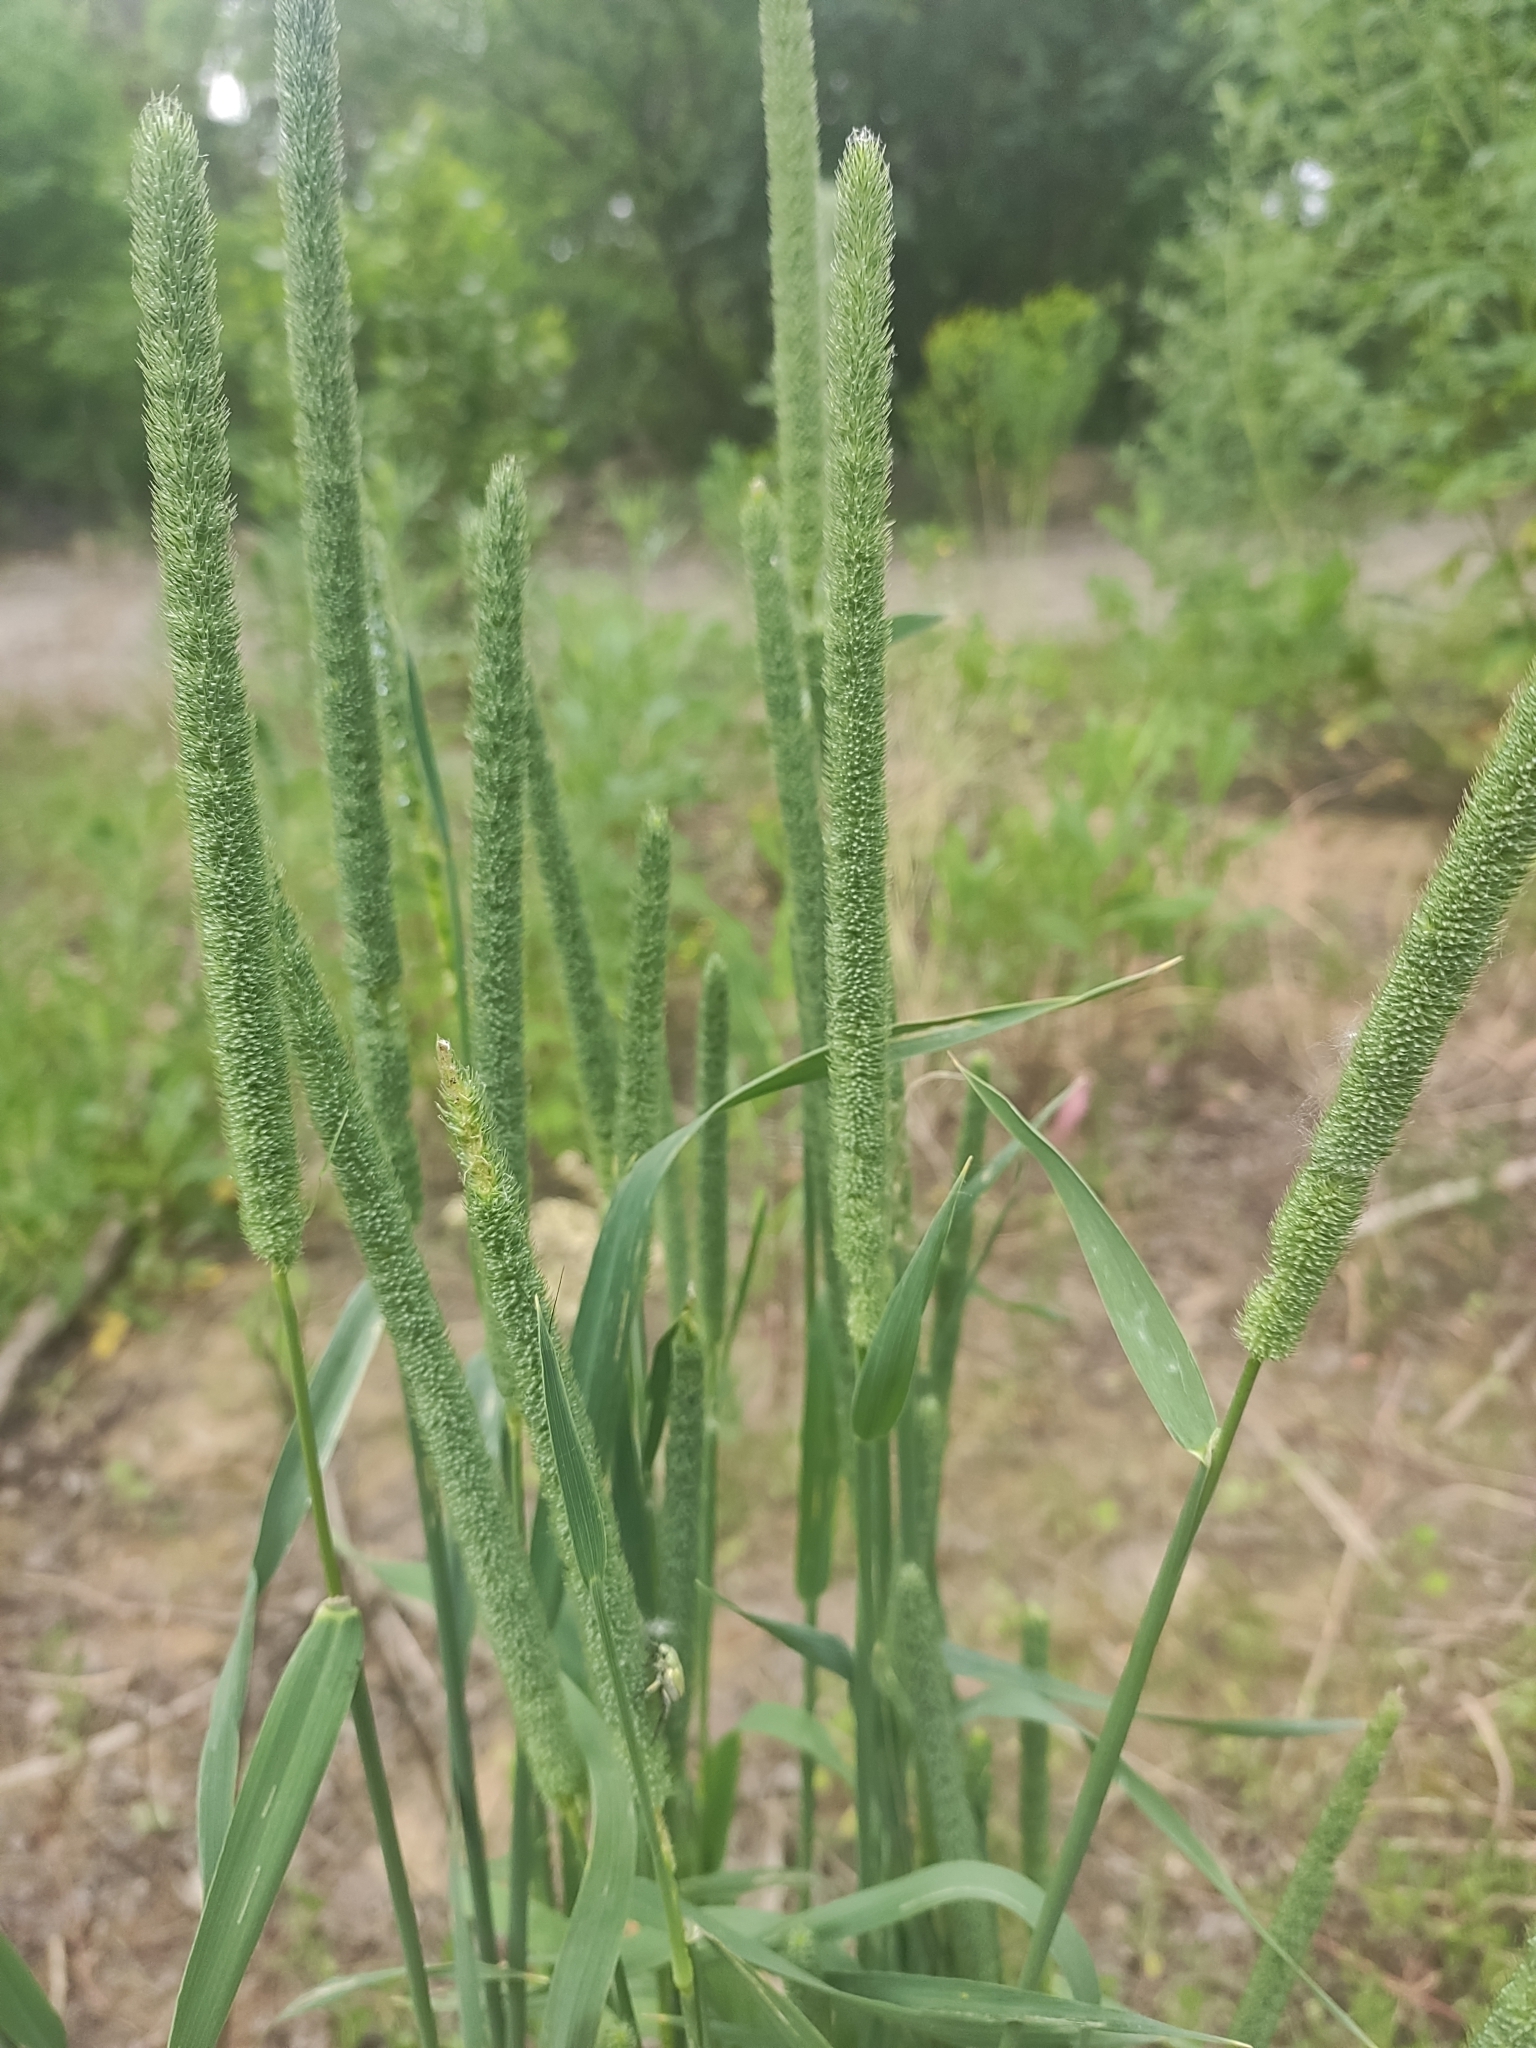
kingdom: Plantae
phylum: Tracheophyta
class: Liliopsida
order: Poales
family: Poaceae
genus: Phleum
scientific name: Phleum pratense
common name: Timothy grass
